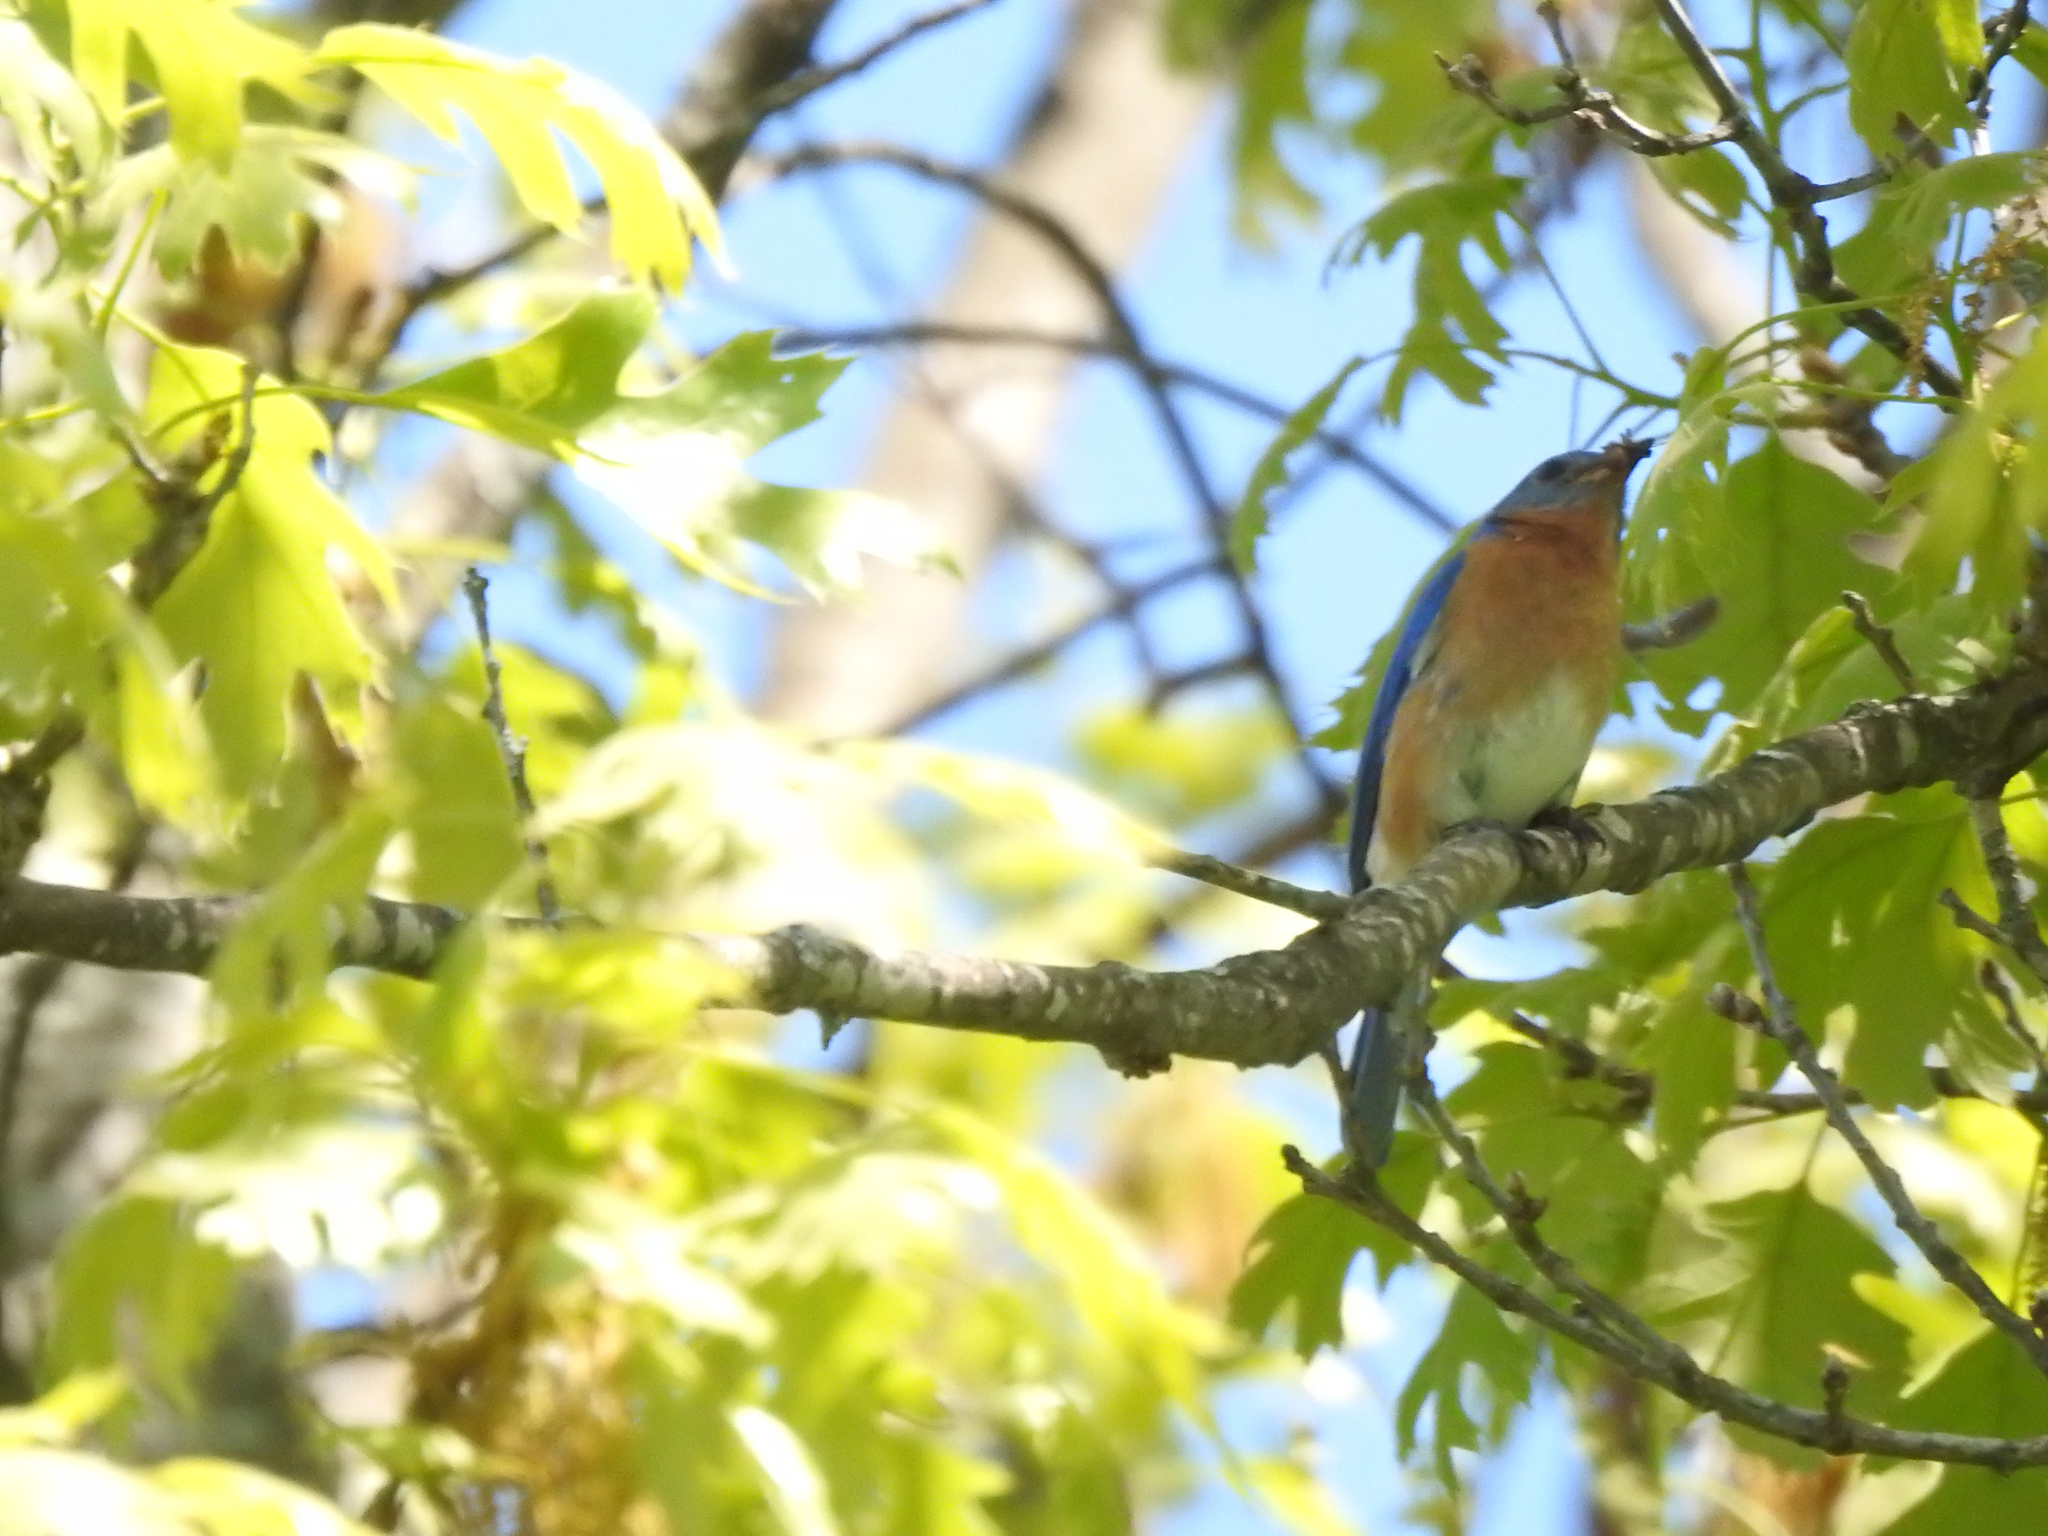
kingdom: Animalia
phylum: Chordata
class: Aves
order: Passeriformes
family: Turdidae
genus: Sialia
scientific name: Sialia sialis
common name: Eastern bluebird
